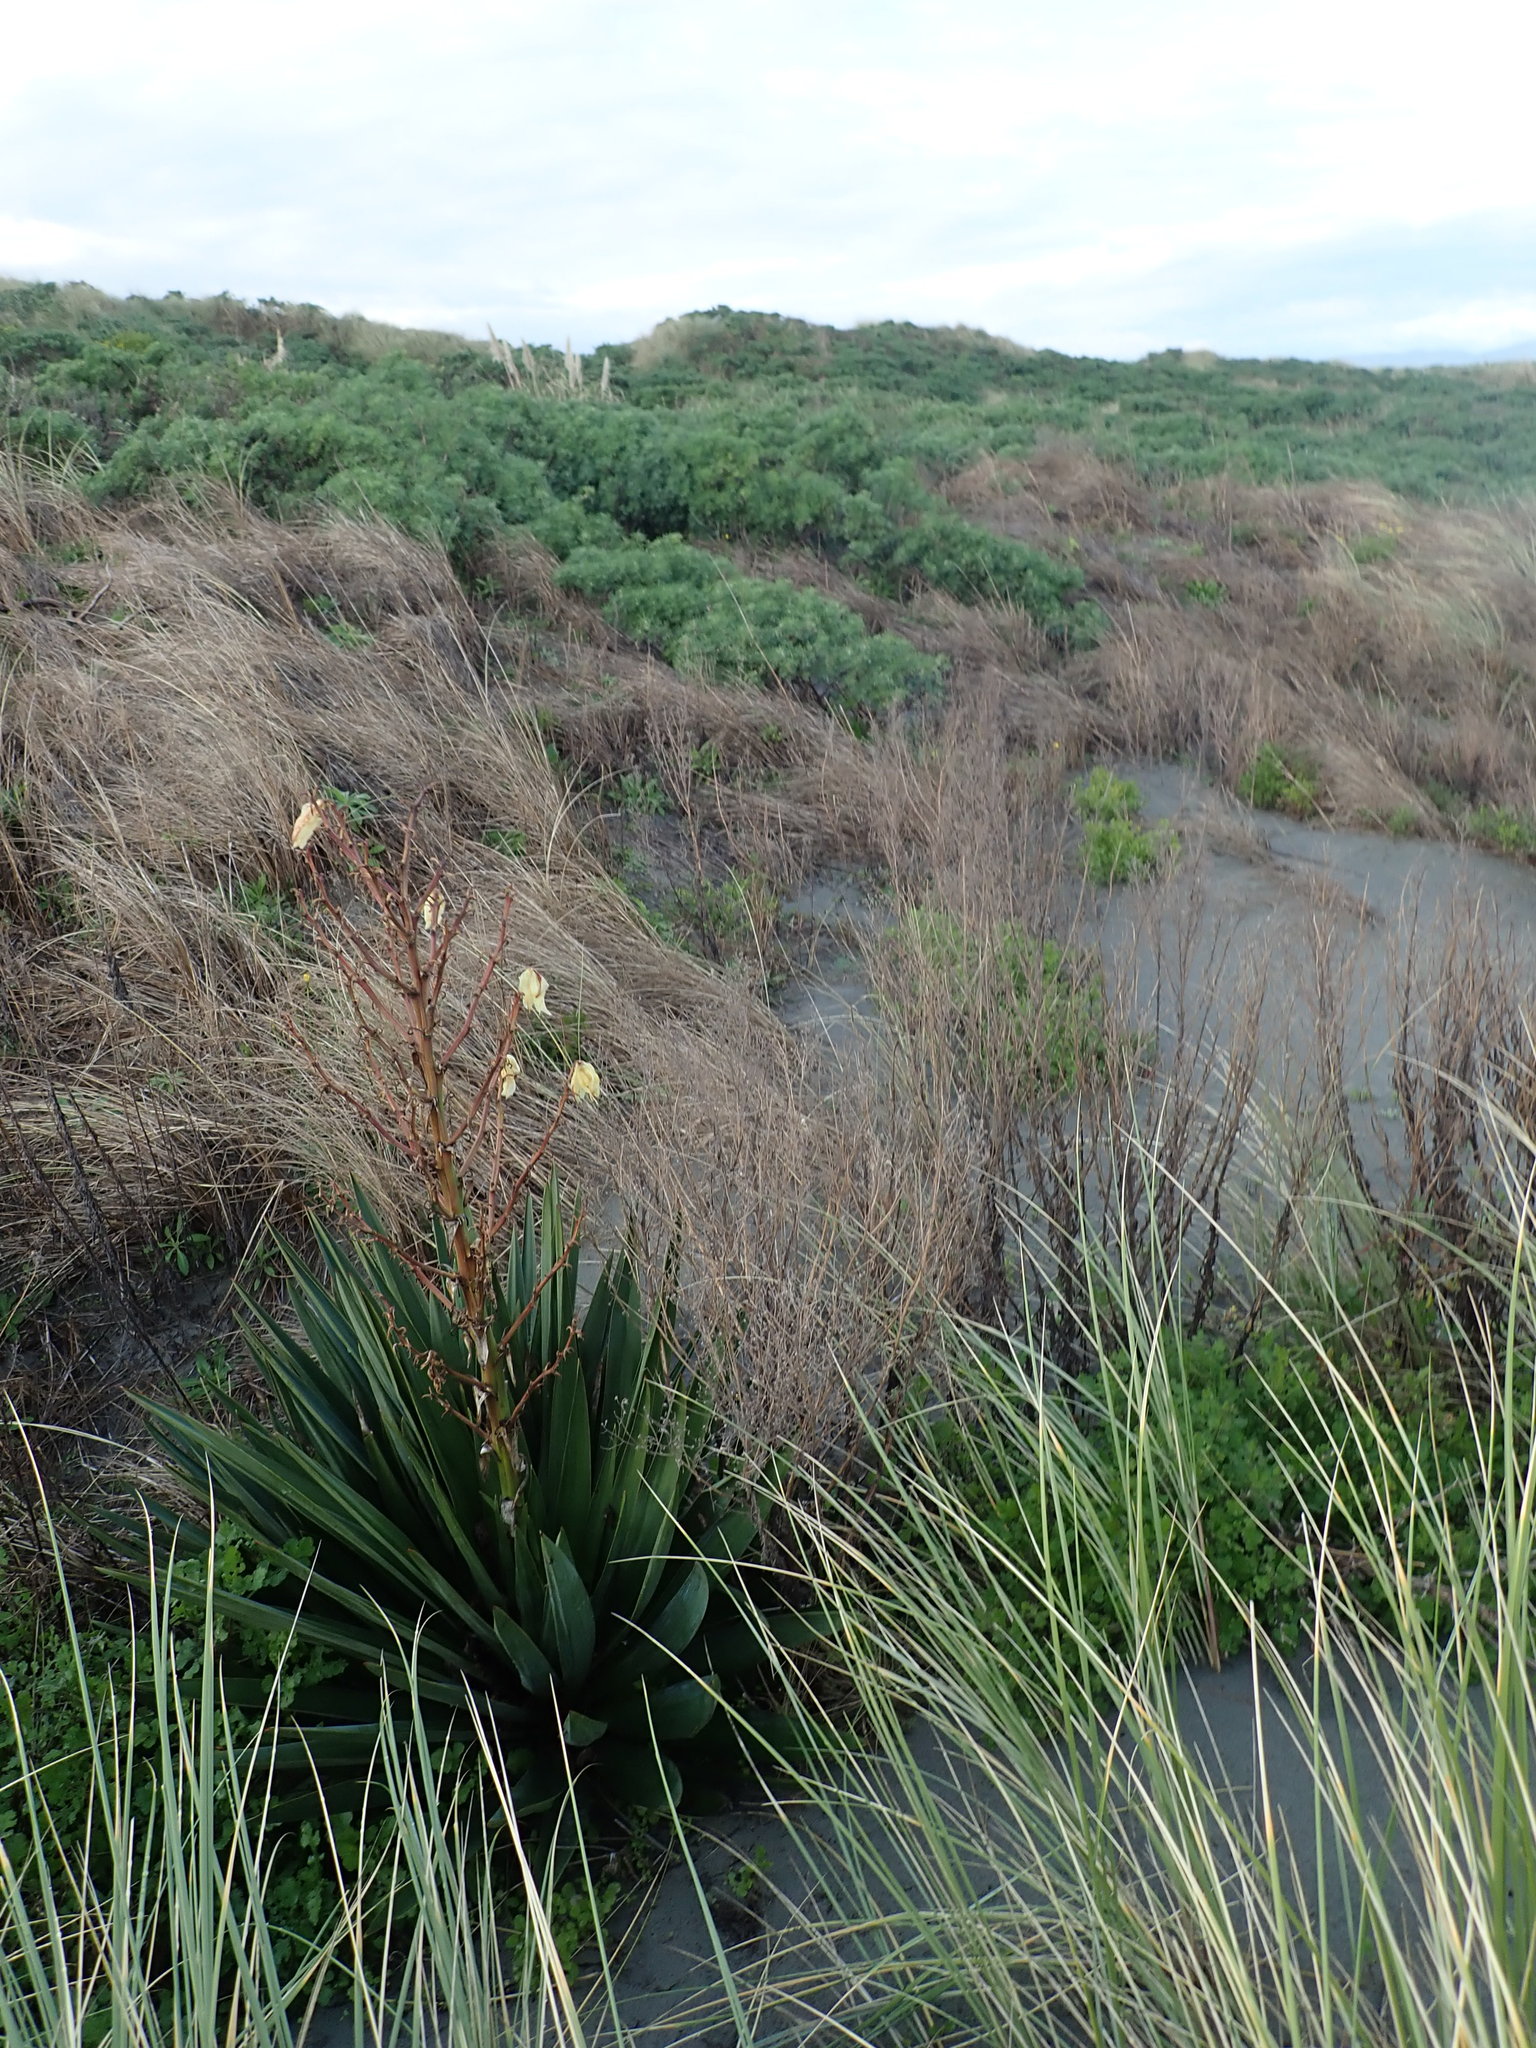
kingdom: Plantae
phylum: Tracheophyta
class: Liliopsida
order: Asparagales
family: Asparagaceae
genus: Yucca
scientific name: Yucca gloriosa
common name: Spanish-dagger
